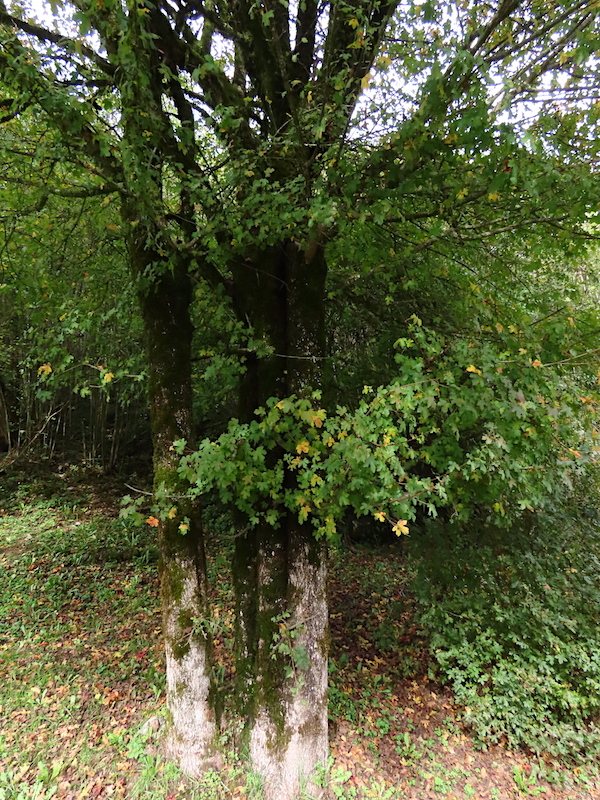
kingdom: Plantae
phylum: Tracheophyta
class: Magnoliopsida
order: Sapindales
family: Sapindaceae
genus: Acer
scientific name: Acer campestre
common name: Field maple
